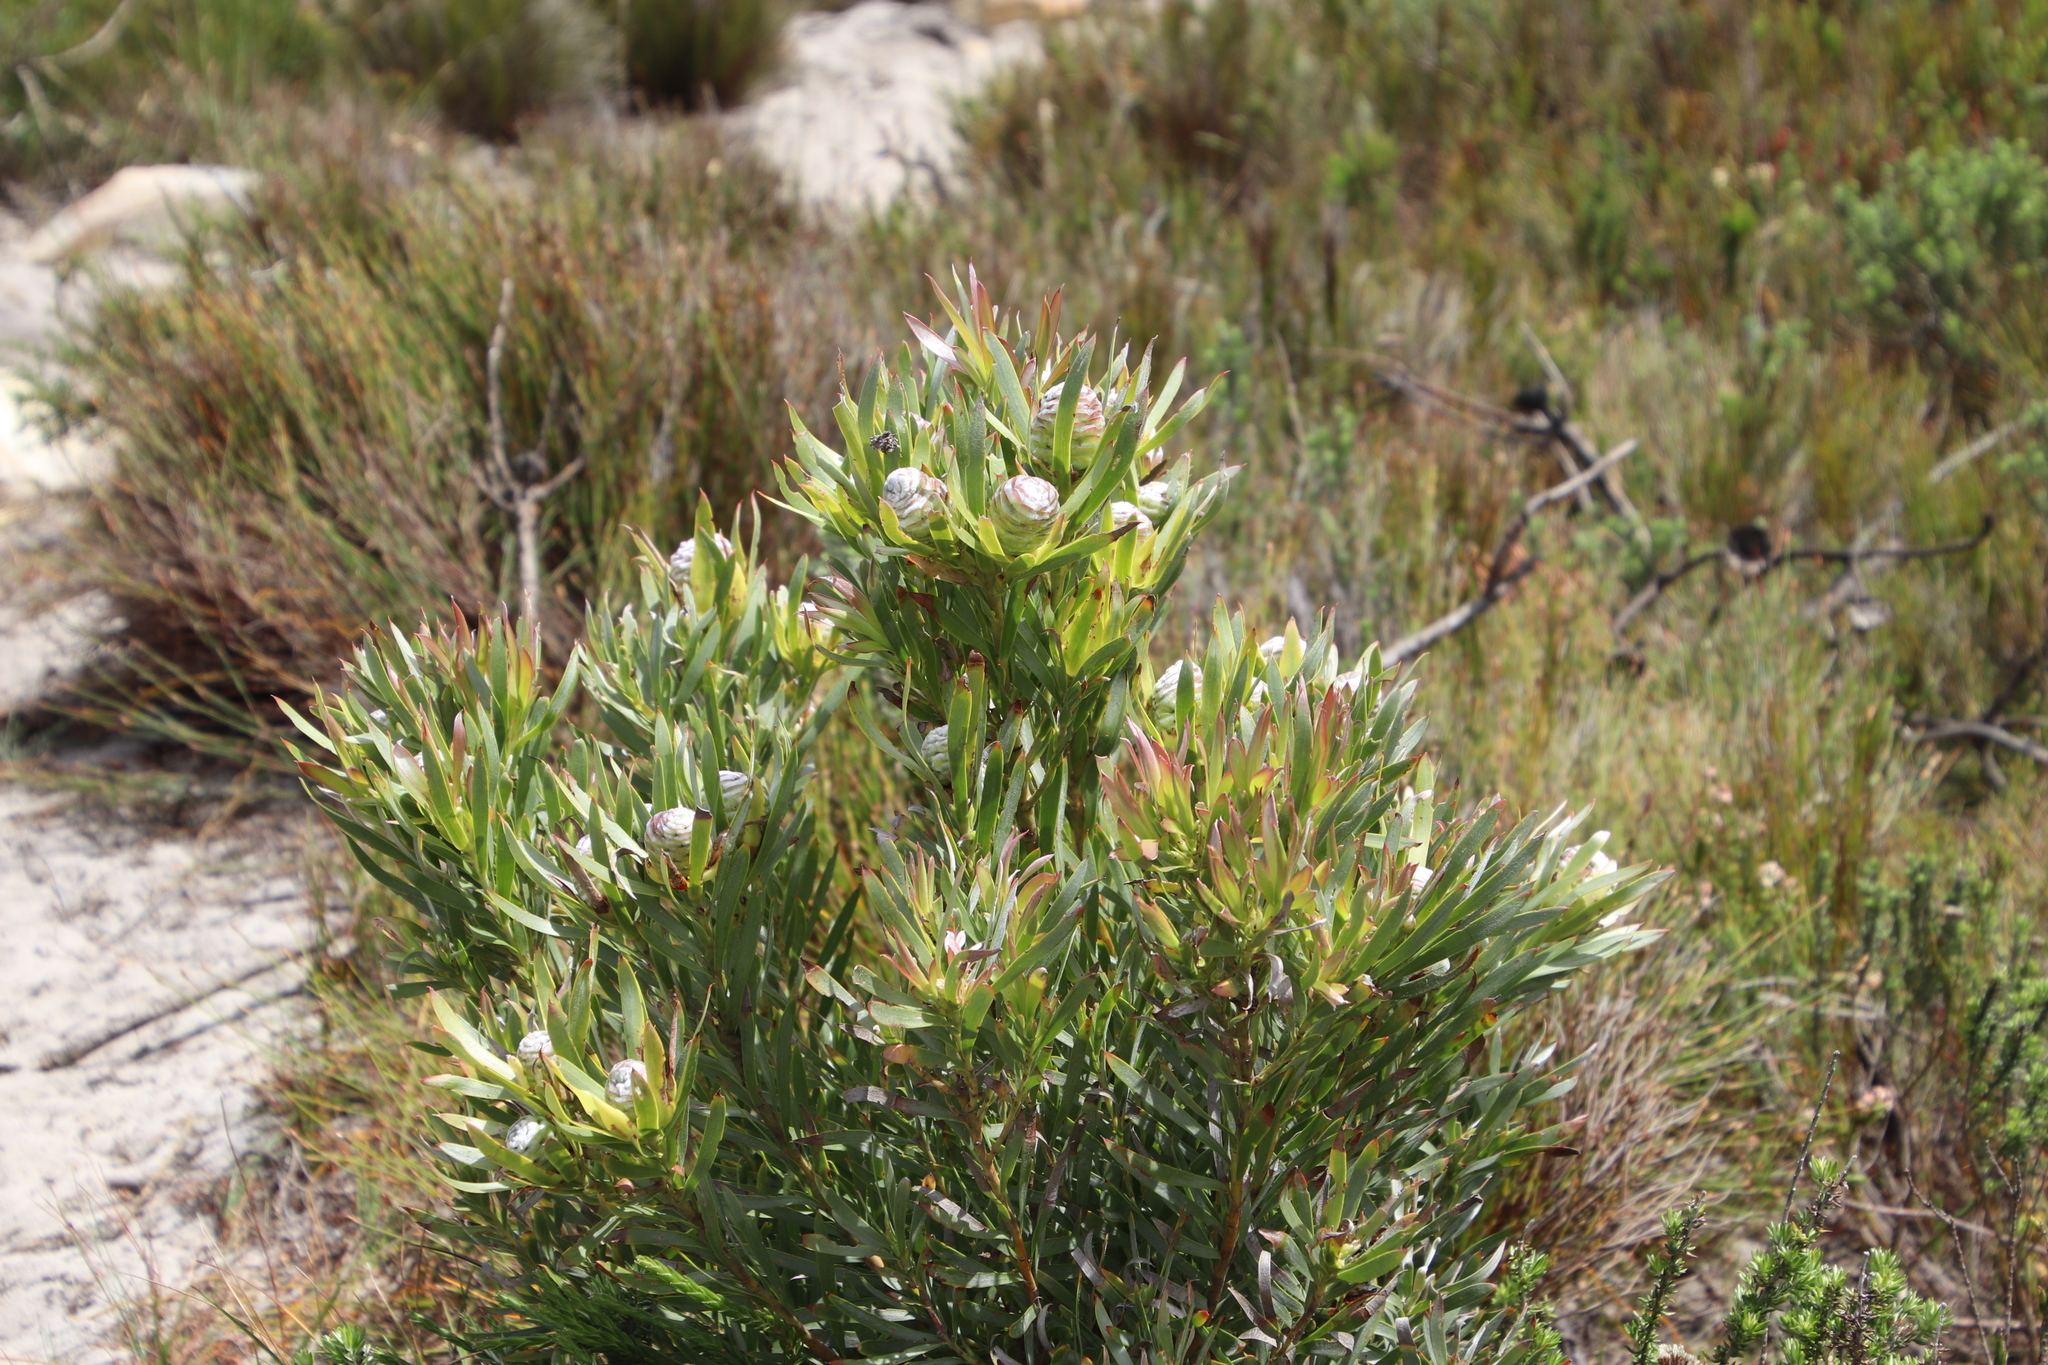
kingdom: Plantae
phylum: Tracheophyta
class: Magnoliopsida
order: Proteales
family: Proteaceae
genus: Leucadendron
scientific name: Leucadendron xanthoconus
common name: Sickle-leaf conebush
